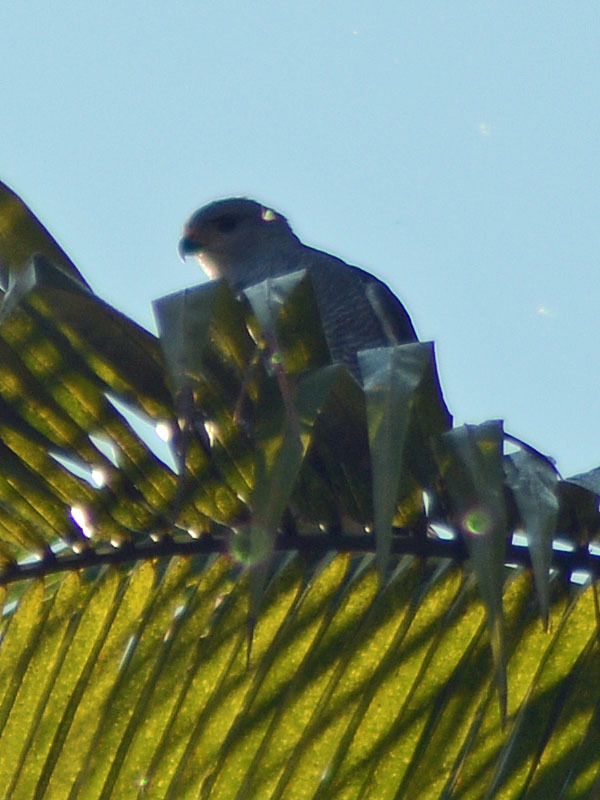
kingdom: Animalia
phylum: Chordata
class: Aves
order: Accipitriformes
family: Accipitridae
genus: Buteo
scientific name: Buteo nitidus
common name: Grey-lined hawk
